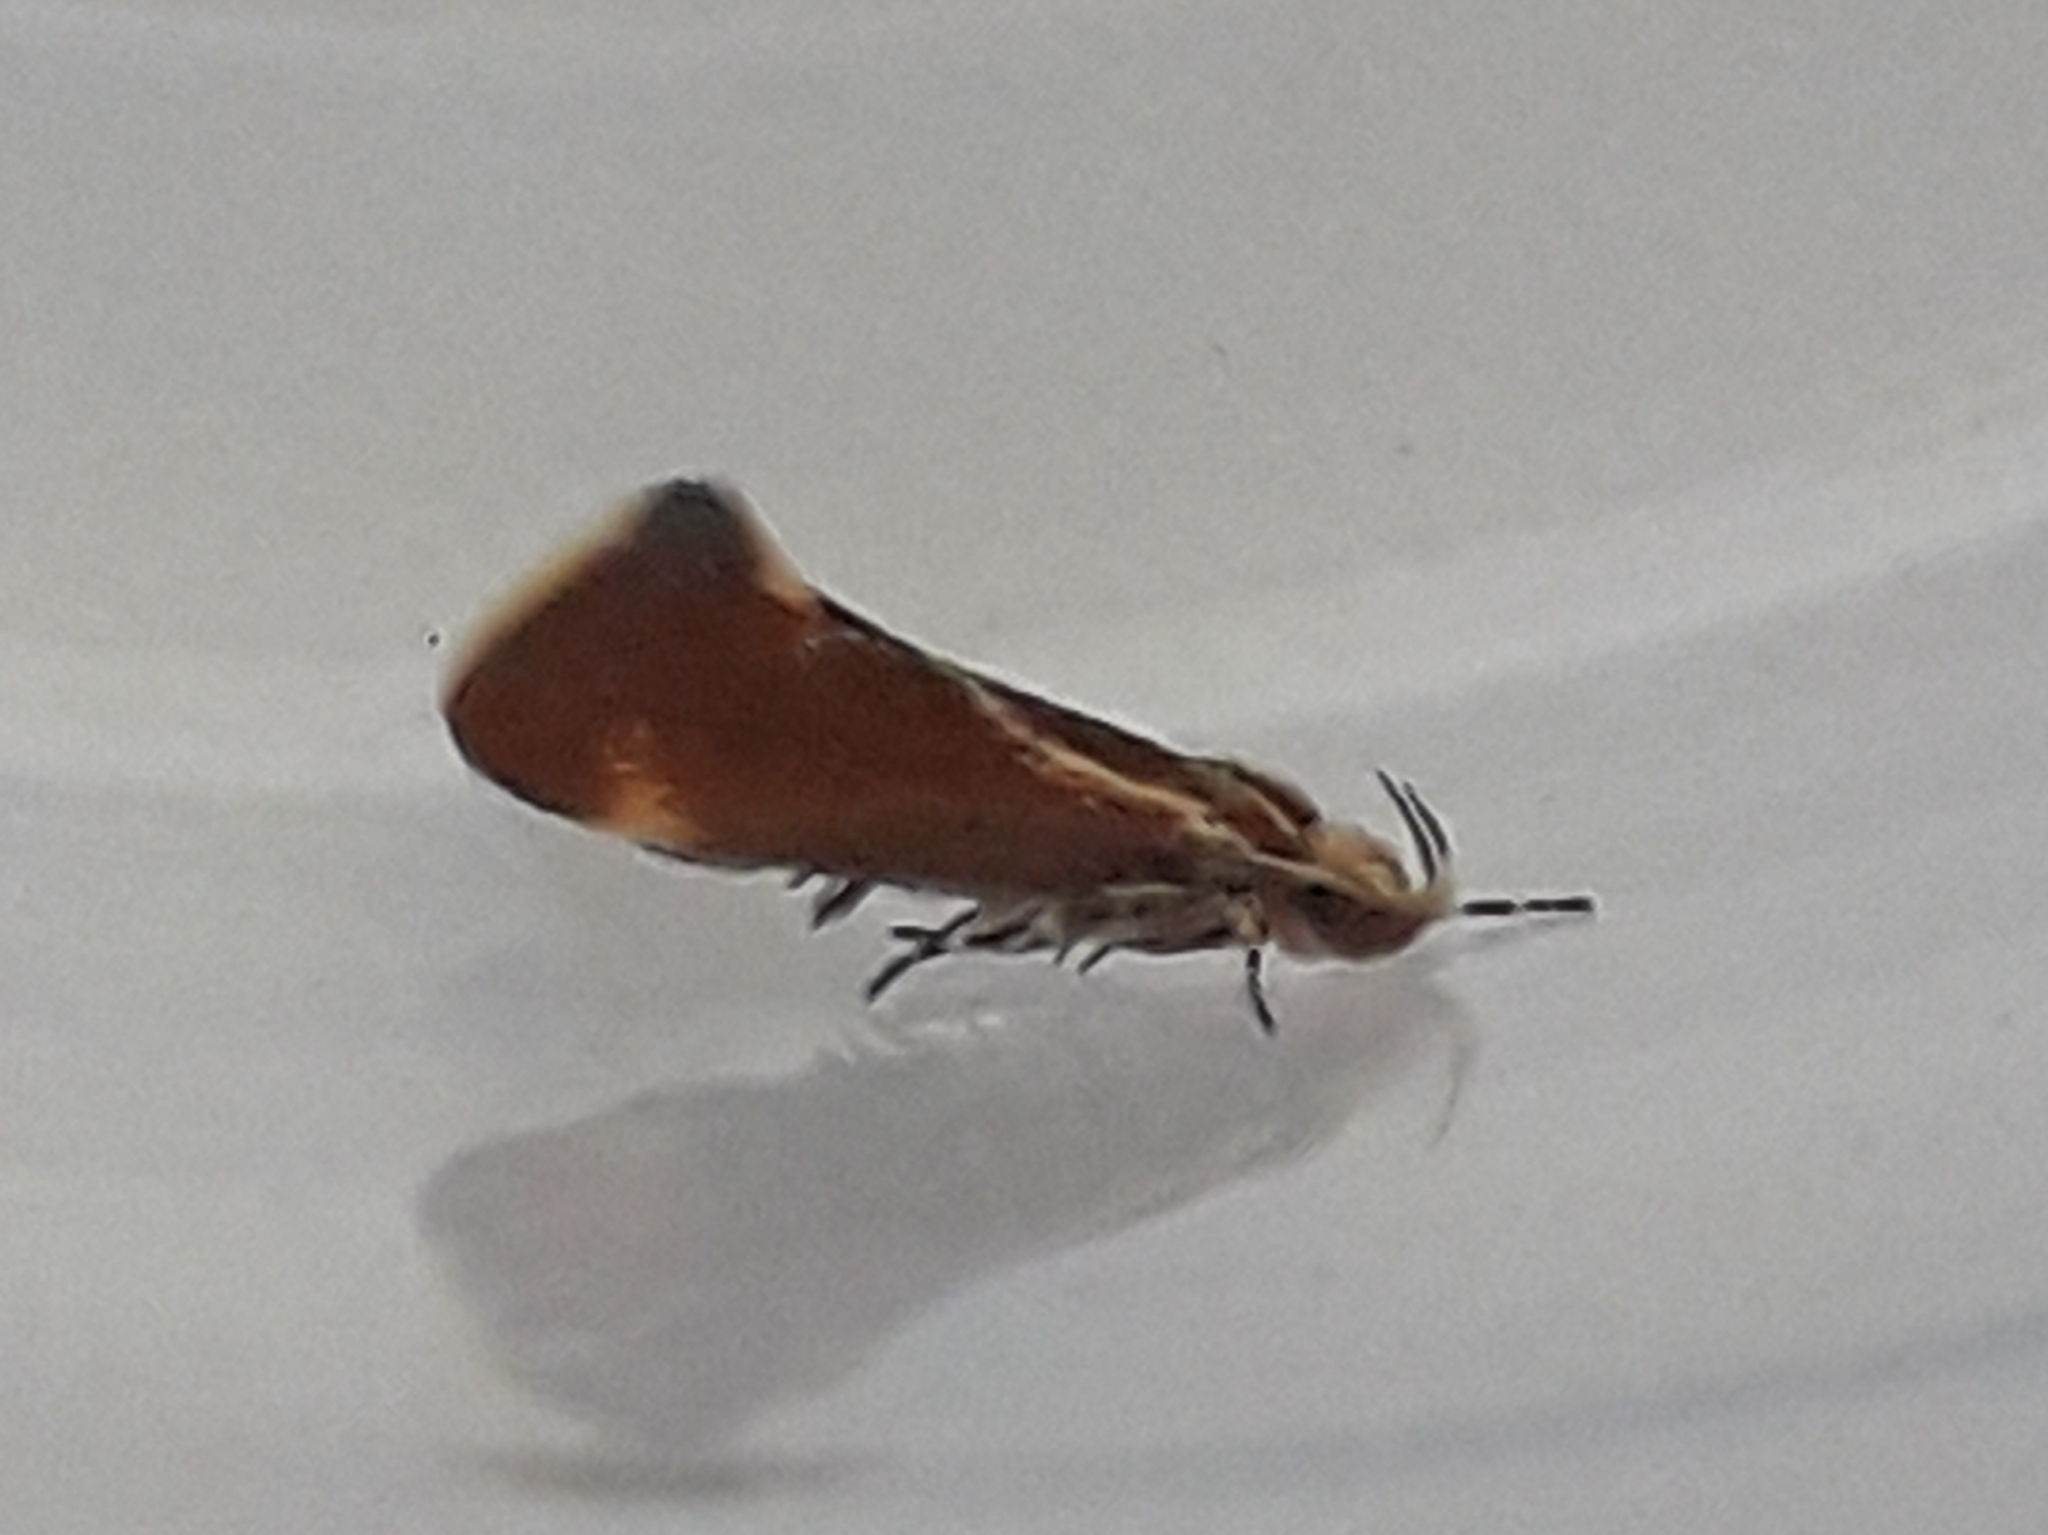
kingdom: Animalia
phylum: Arthropoda
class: Insecta
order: Lepidoptera
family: Oecophoridae
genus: Borkhausenia
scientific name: Borkhausenia italica
